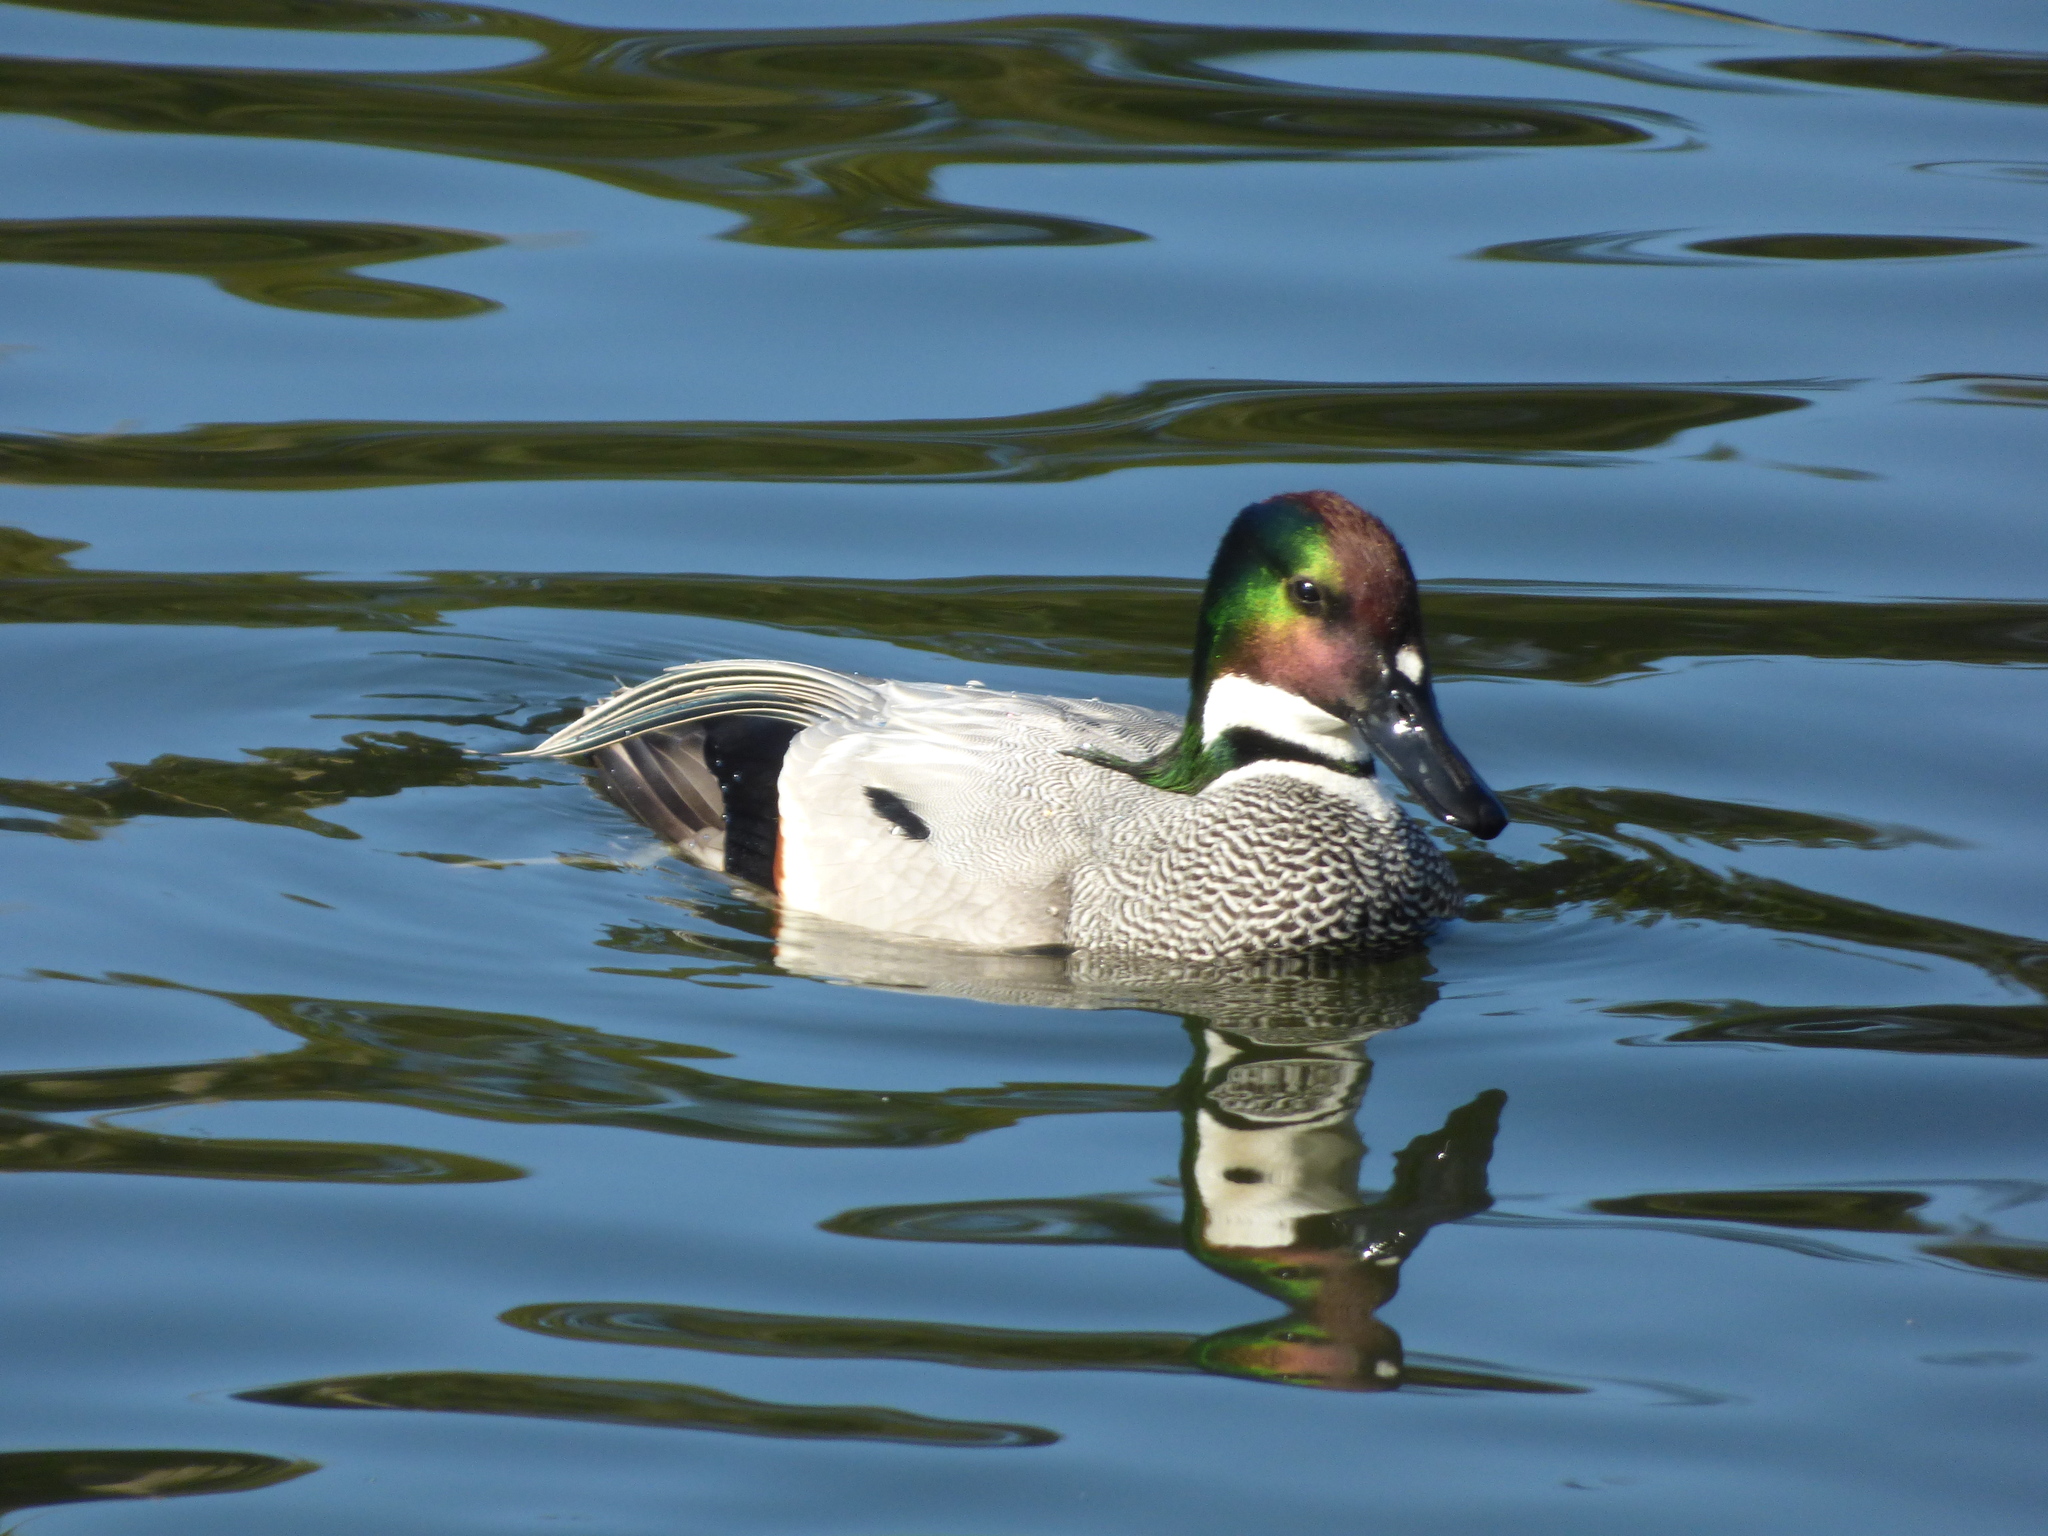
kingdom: Animalia
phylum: Chordata
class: Aves
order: Anseriformes
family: Anatidae
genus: Mareca
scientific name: Mareca falcata
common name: Falcated duck
